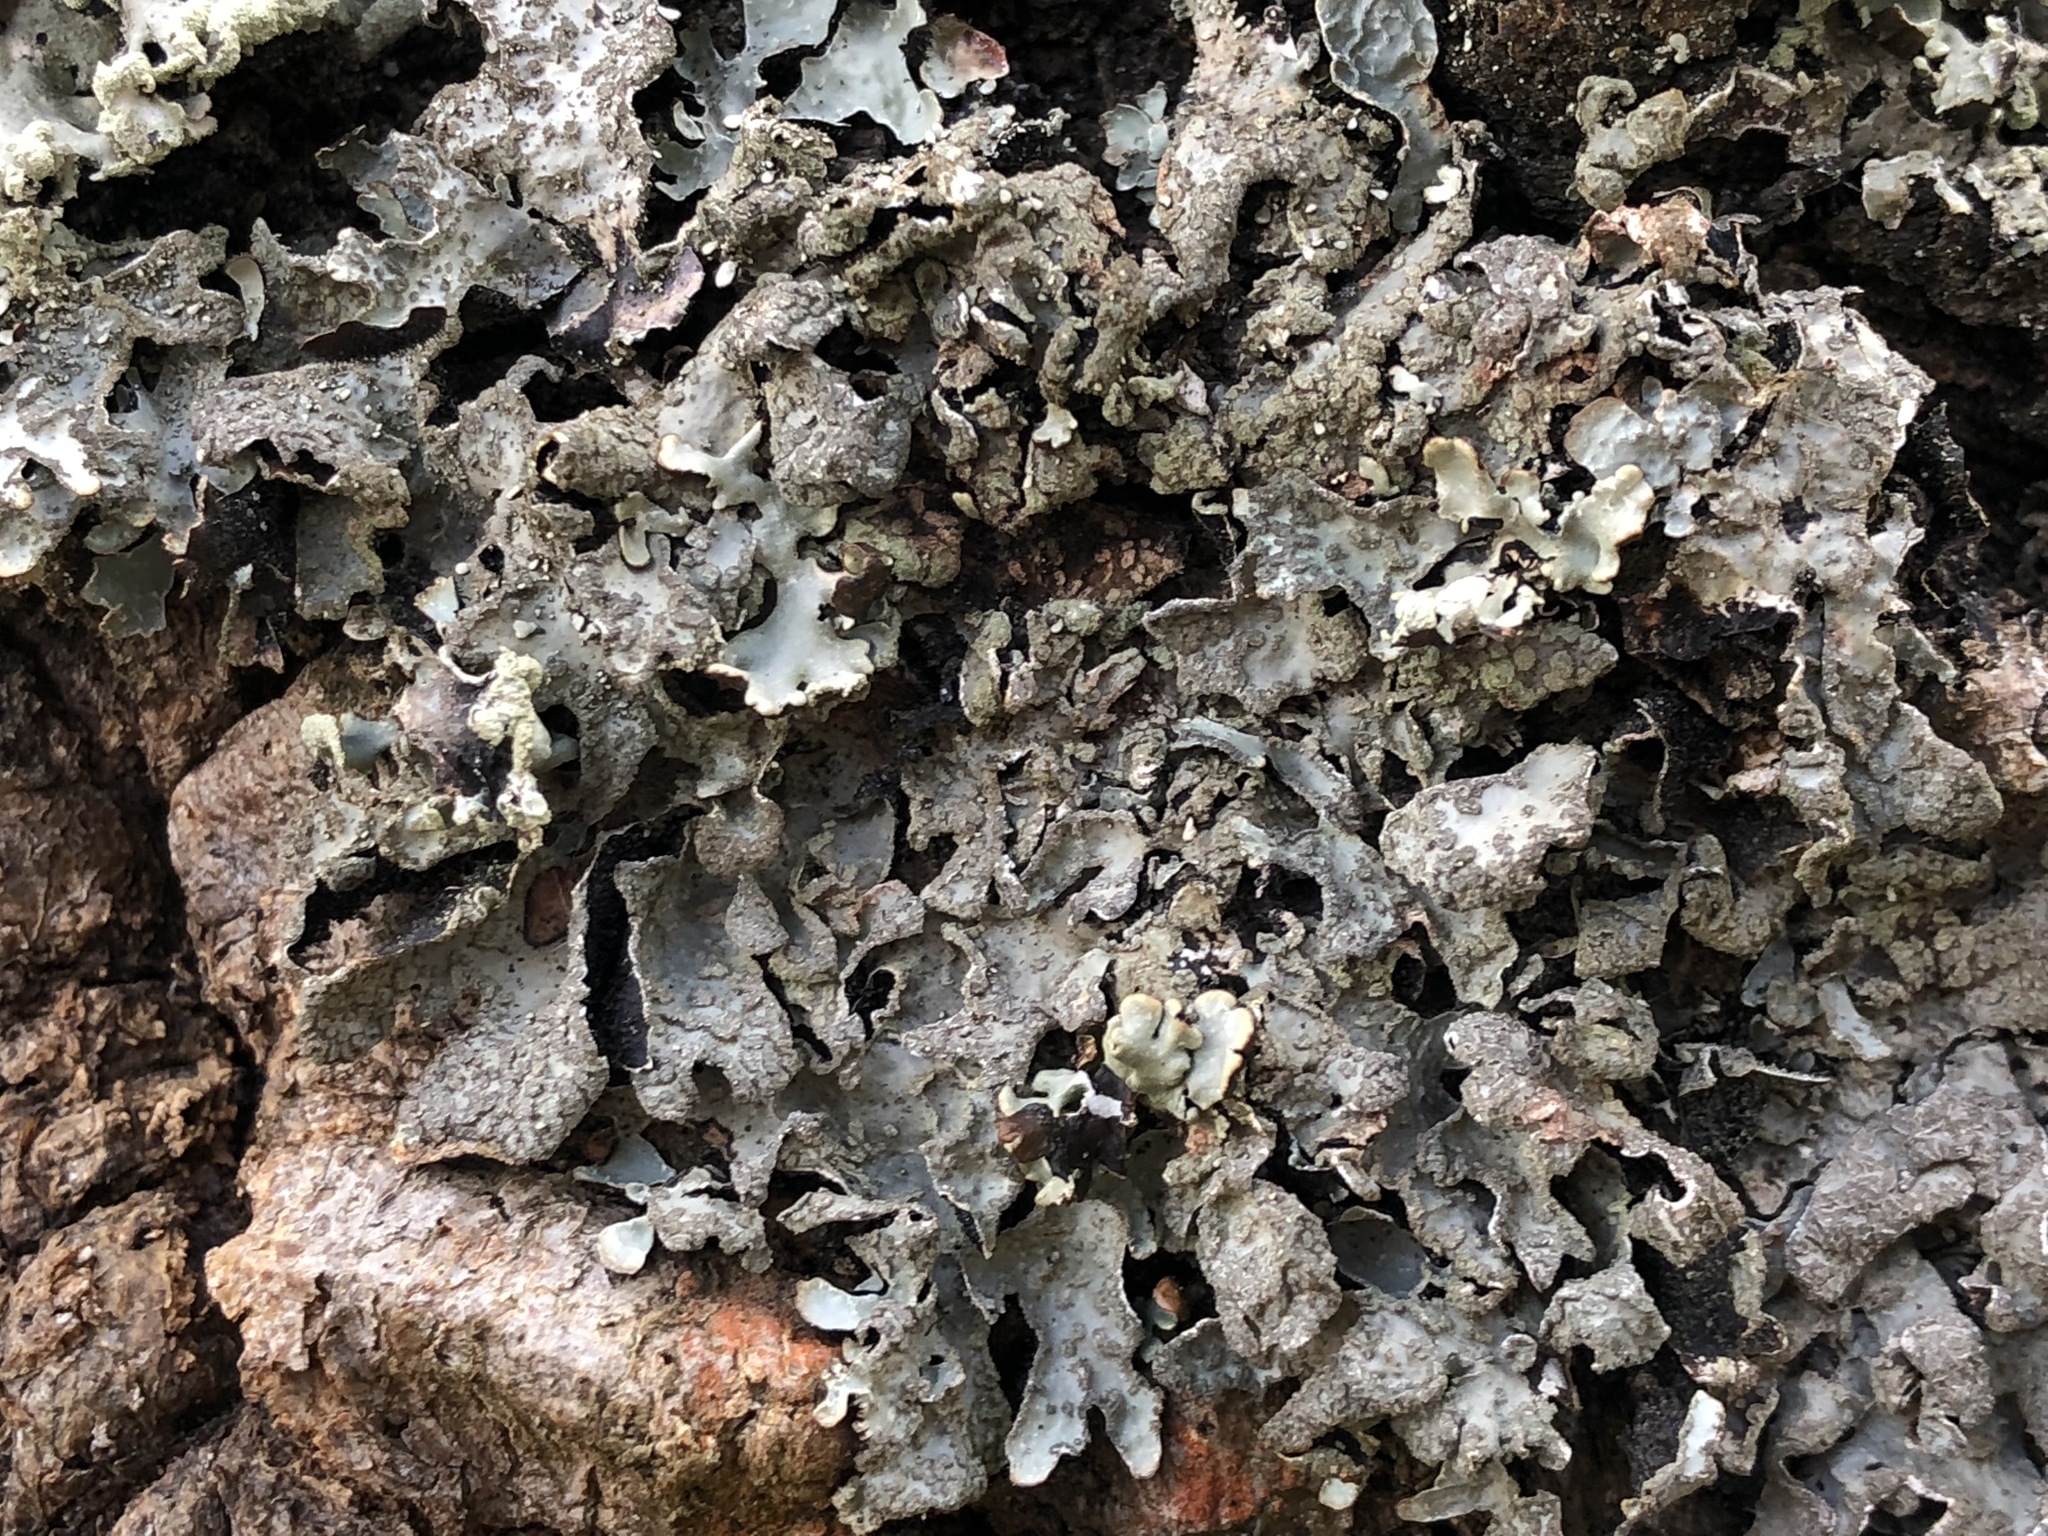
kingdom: Fungi
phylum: Ascomycota
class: Lecanoromycetes
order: Lecanorales
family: Parmeliaceae
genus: Parmelia
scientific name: Parmelia sulcata
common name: Netted shield lichen
